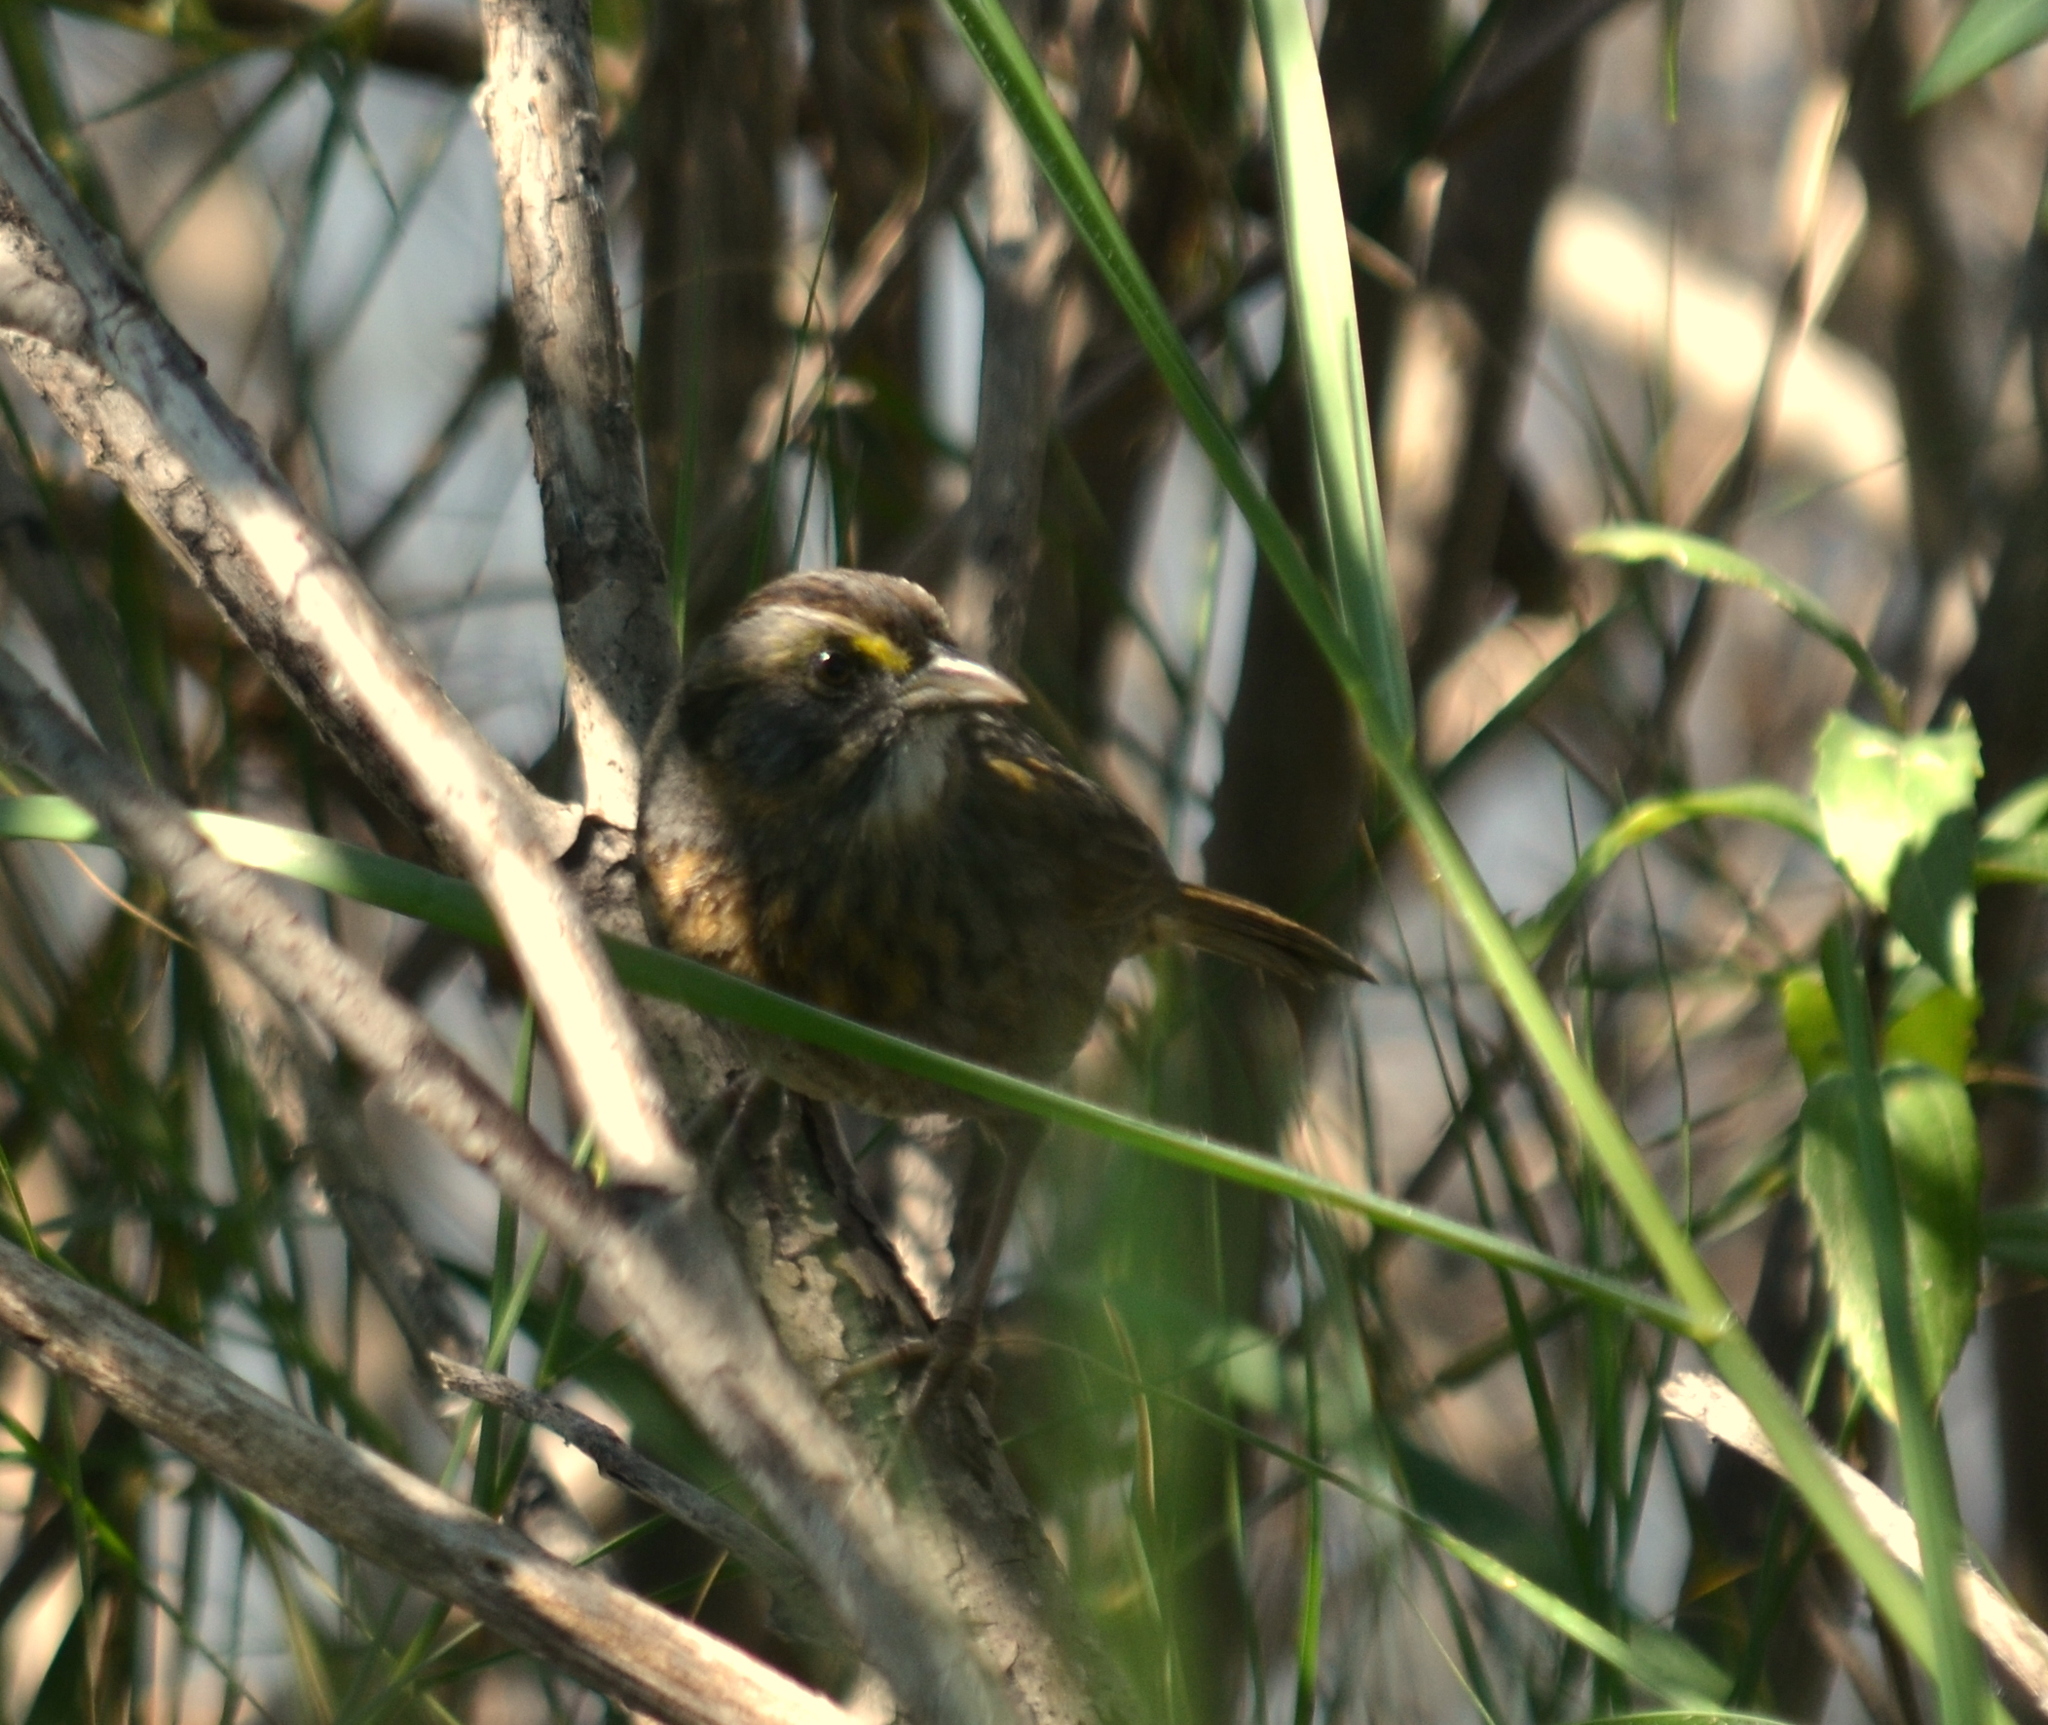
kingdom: Animalia
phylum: Chordata
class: Aves
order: Passeriformes
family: Passerellidae
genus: Ammospiza
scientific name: Ammospiza maritima
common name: Seaside sparrow
